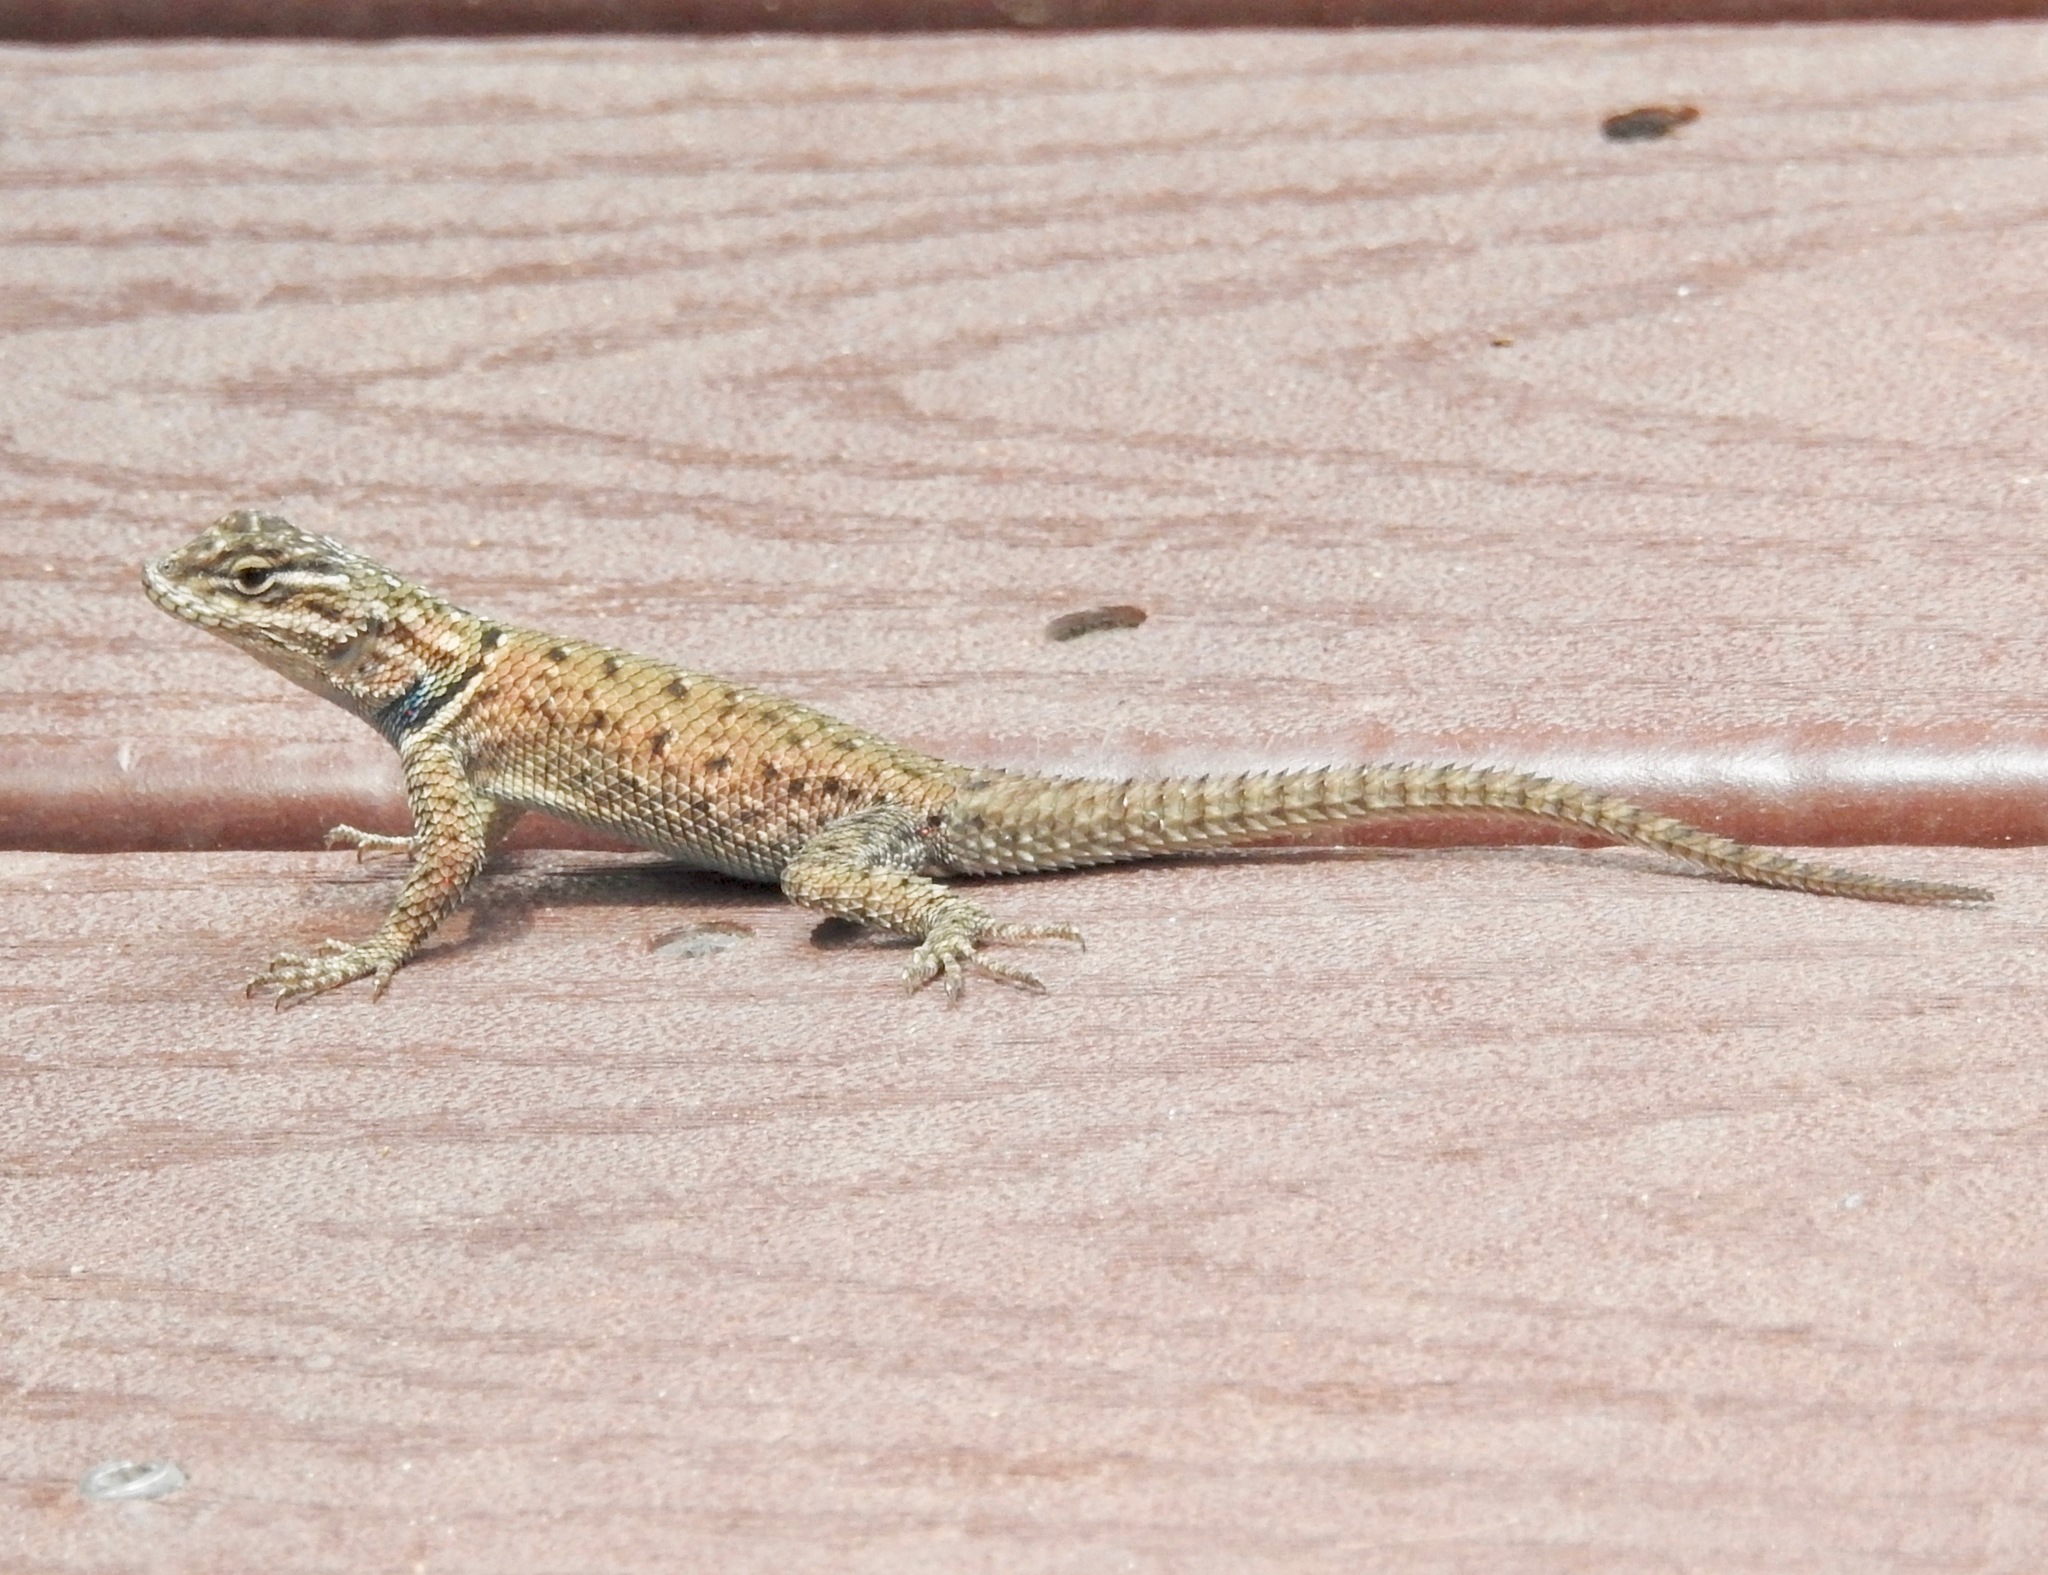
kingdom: Animalia
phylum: Chordata
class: Squamata
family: Phrynosomatidae
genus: Sceloporus
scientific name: Sceloporus jarrovii
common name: Yarrow's spiny lizard
